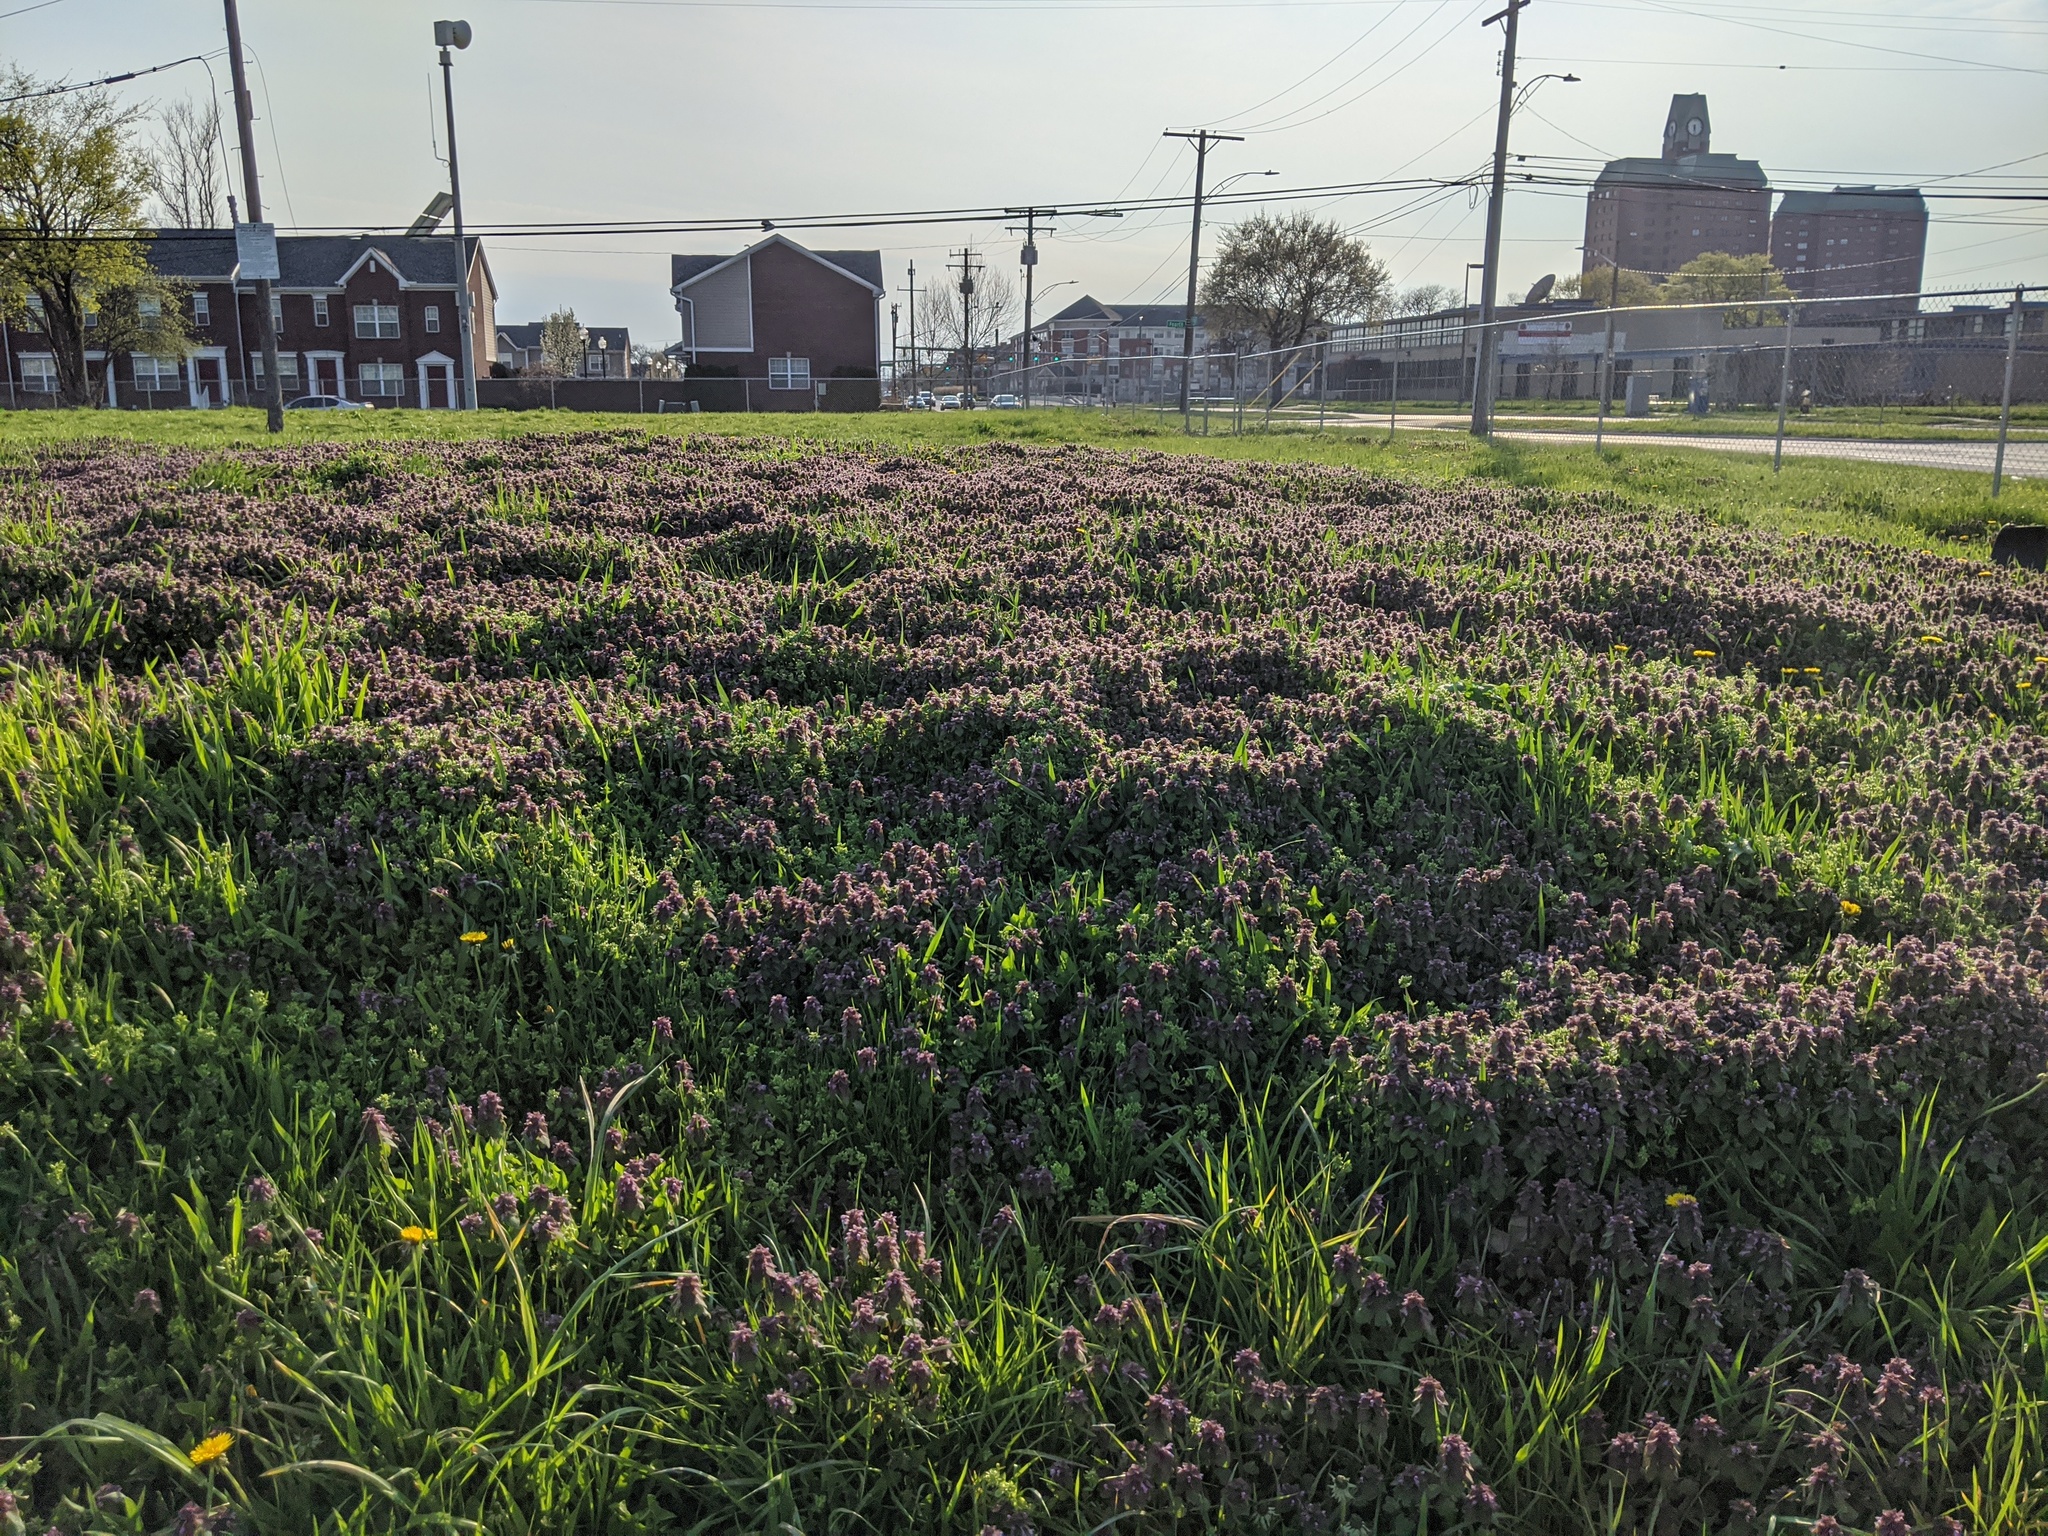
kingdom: Plantae
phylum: Tracheophyta
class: Magnoliopsida
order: Lamiales
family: Lamiaceae
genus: Lamium
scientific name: Lamium purpureum
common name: Red dead-nettle
